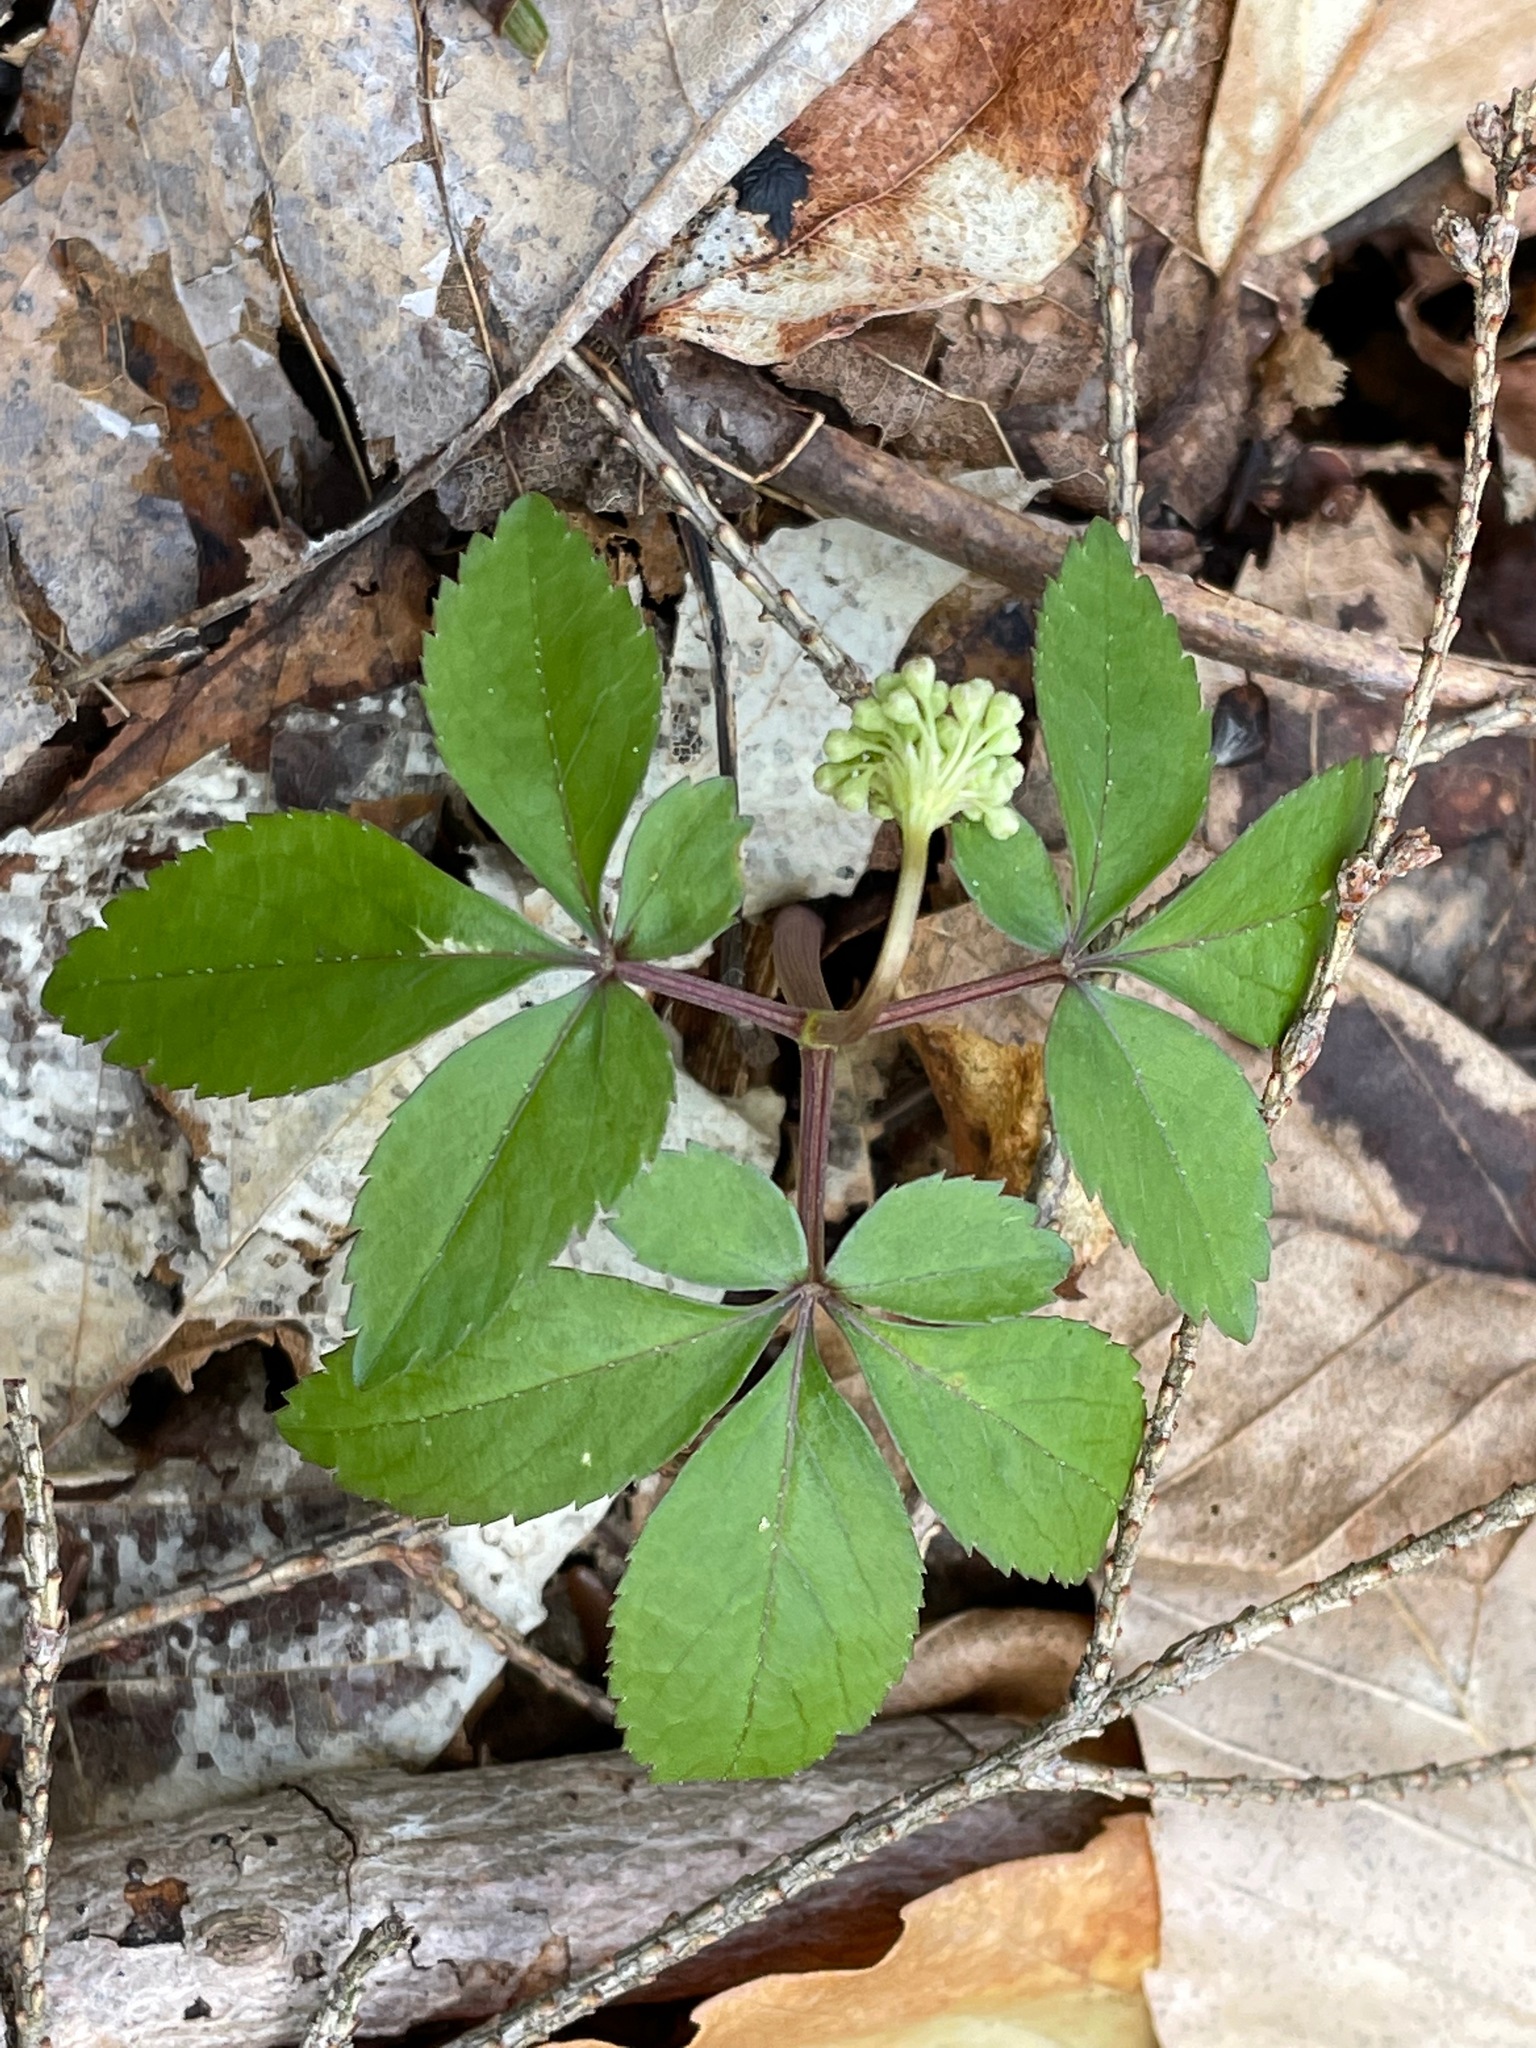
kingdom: Plantae
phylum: Tracheophyta
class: Magnoliopsida
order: Apiales
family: Araliaceae
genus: Panax
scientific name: Panax trifolius
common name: Dwarf ginseng
